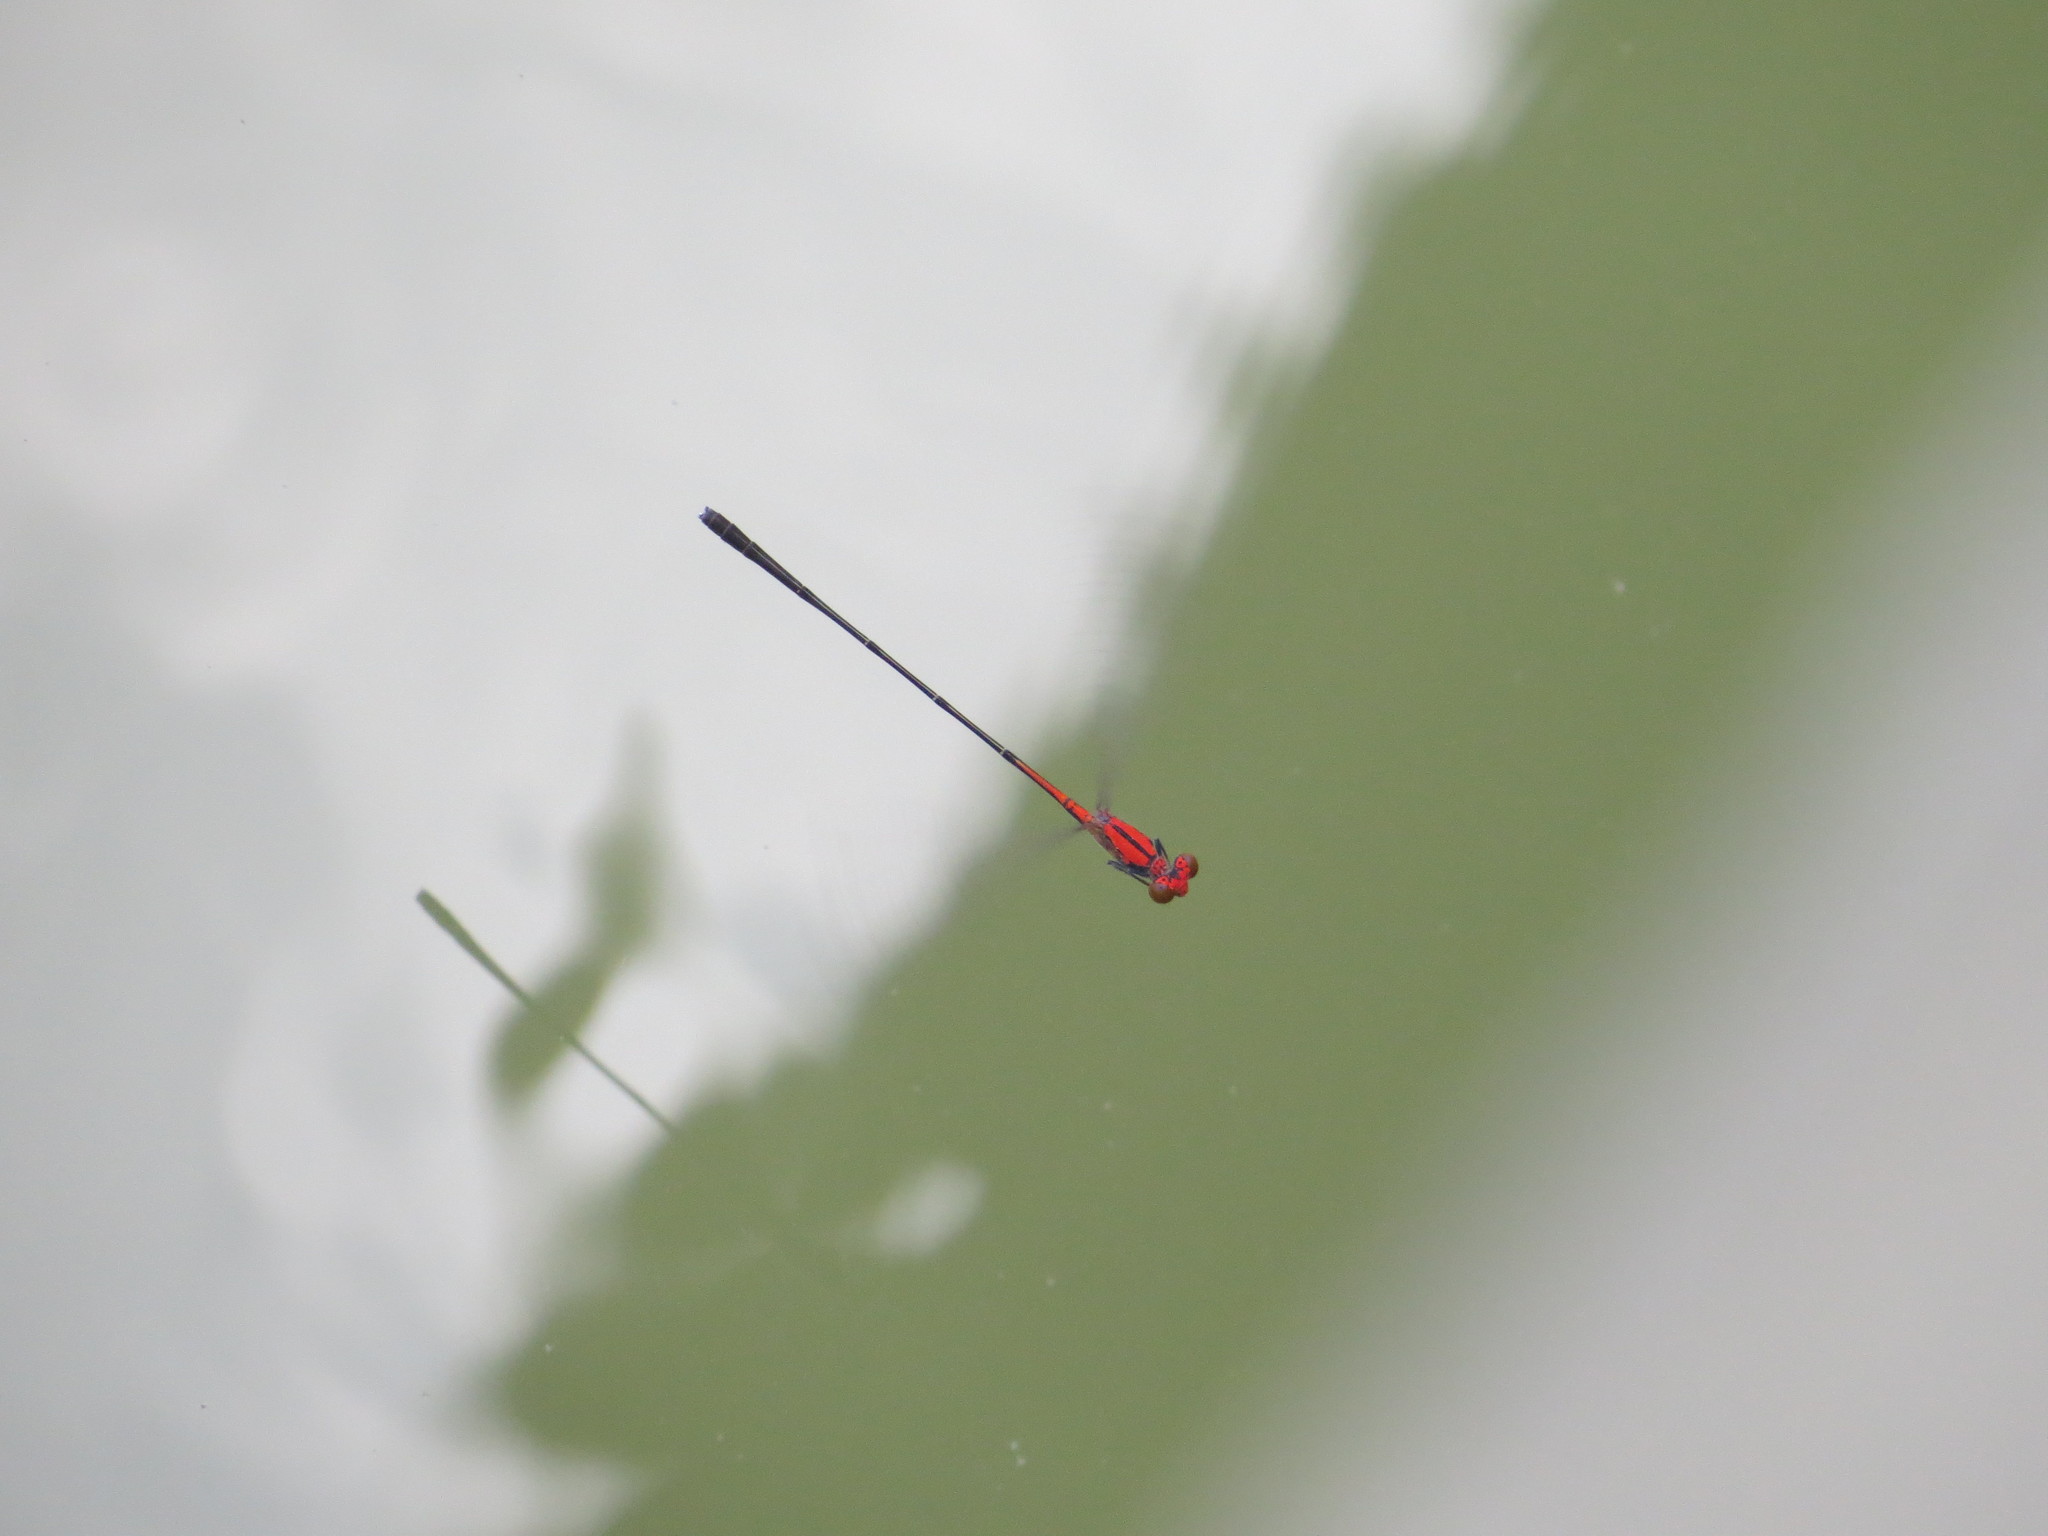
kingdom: Animalia
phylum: Arthropoda
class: Insecta
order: Odonata
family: Coenagrionidae
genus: Neoneura
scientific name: Neoneura amelia
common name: Amelia’s threadtail
